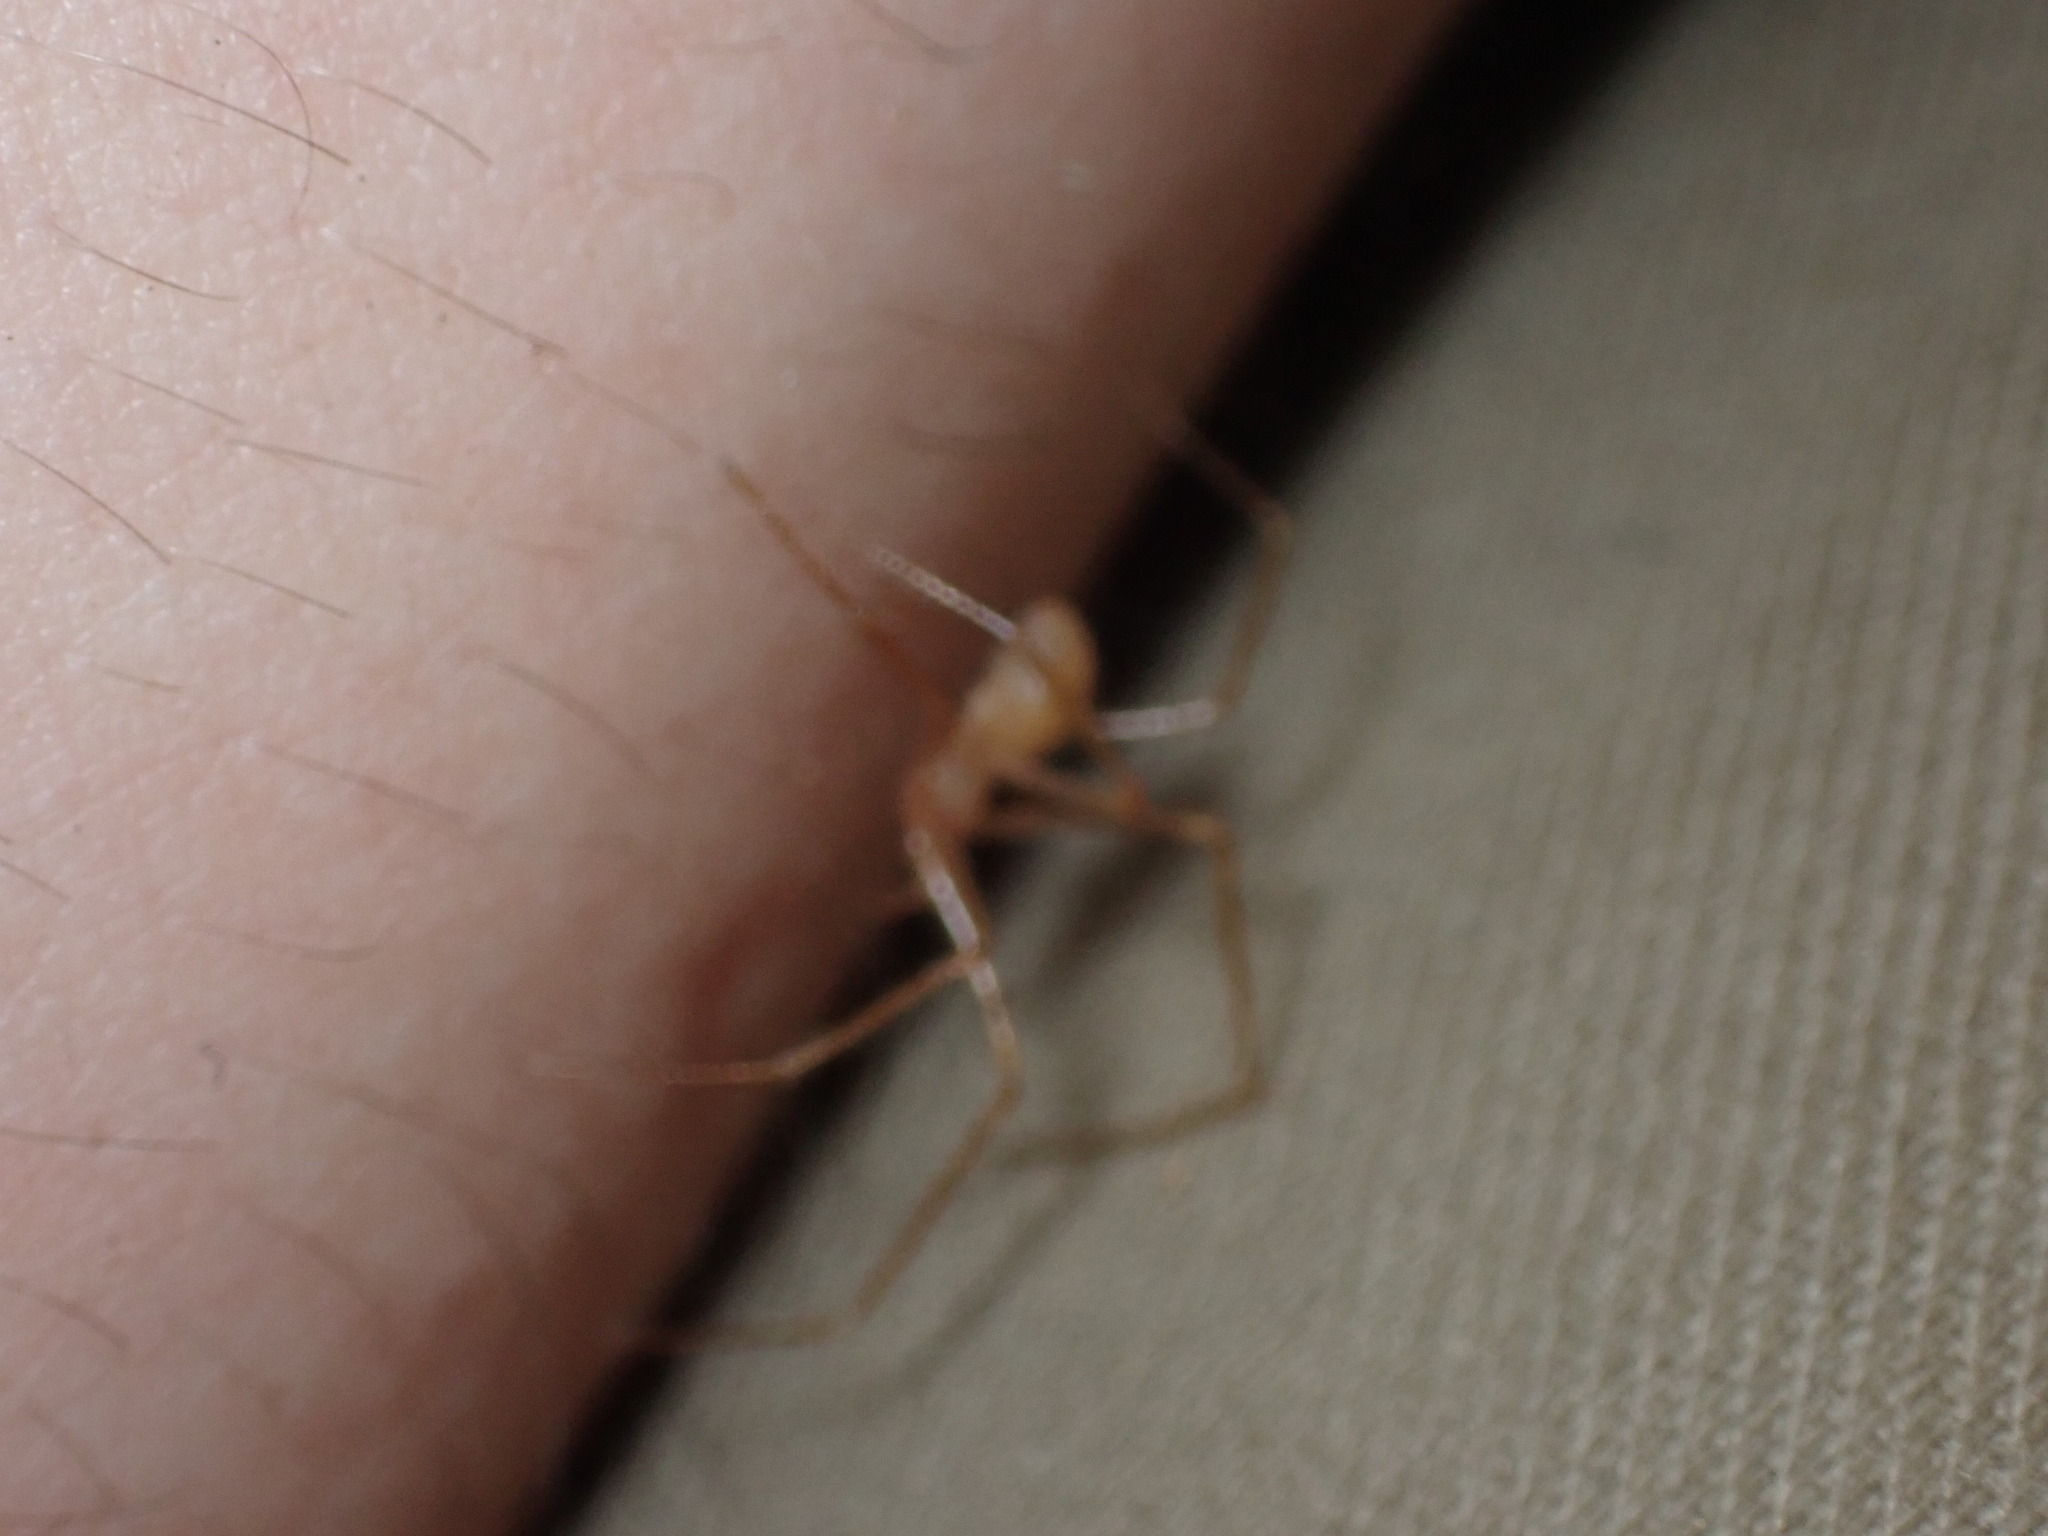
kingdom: Animalia
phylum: Arthropoda
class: Arachnida
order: Araneae
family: Nesticidae
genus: Nesticus
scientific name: Nesticus barri
